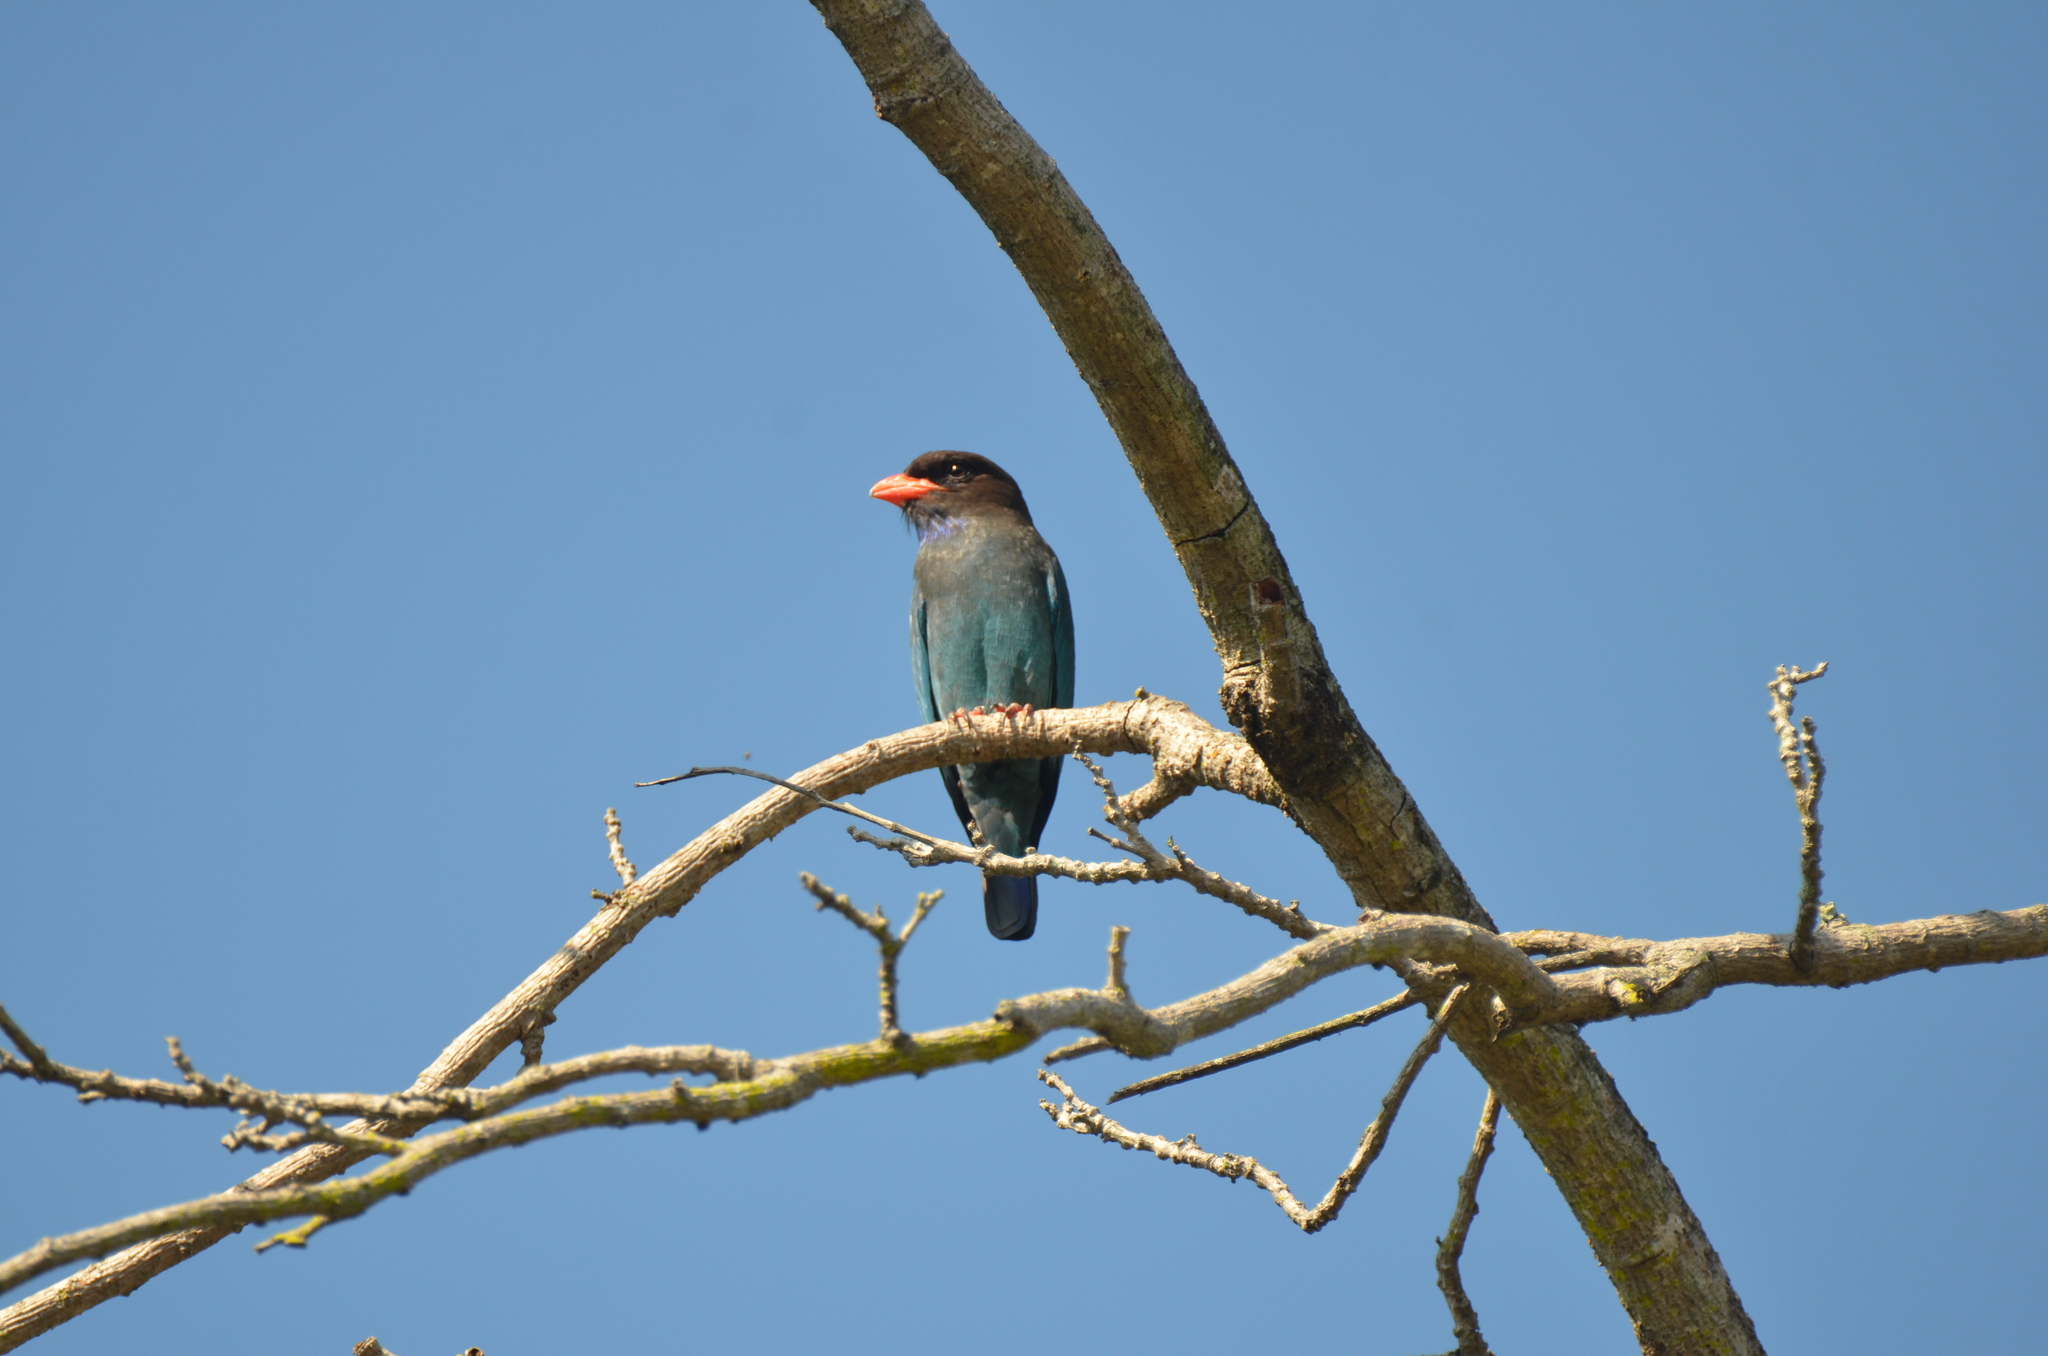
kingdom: Animalia
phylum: Chordata
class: Aves
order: Coraciiformes
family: Coraciidae
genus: Eurystomus
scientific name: Eurystomus orientalis
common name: Oriental dollarbird
